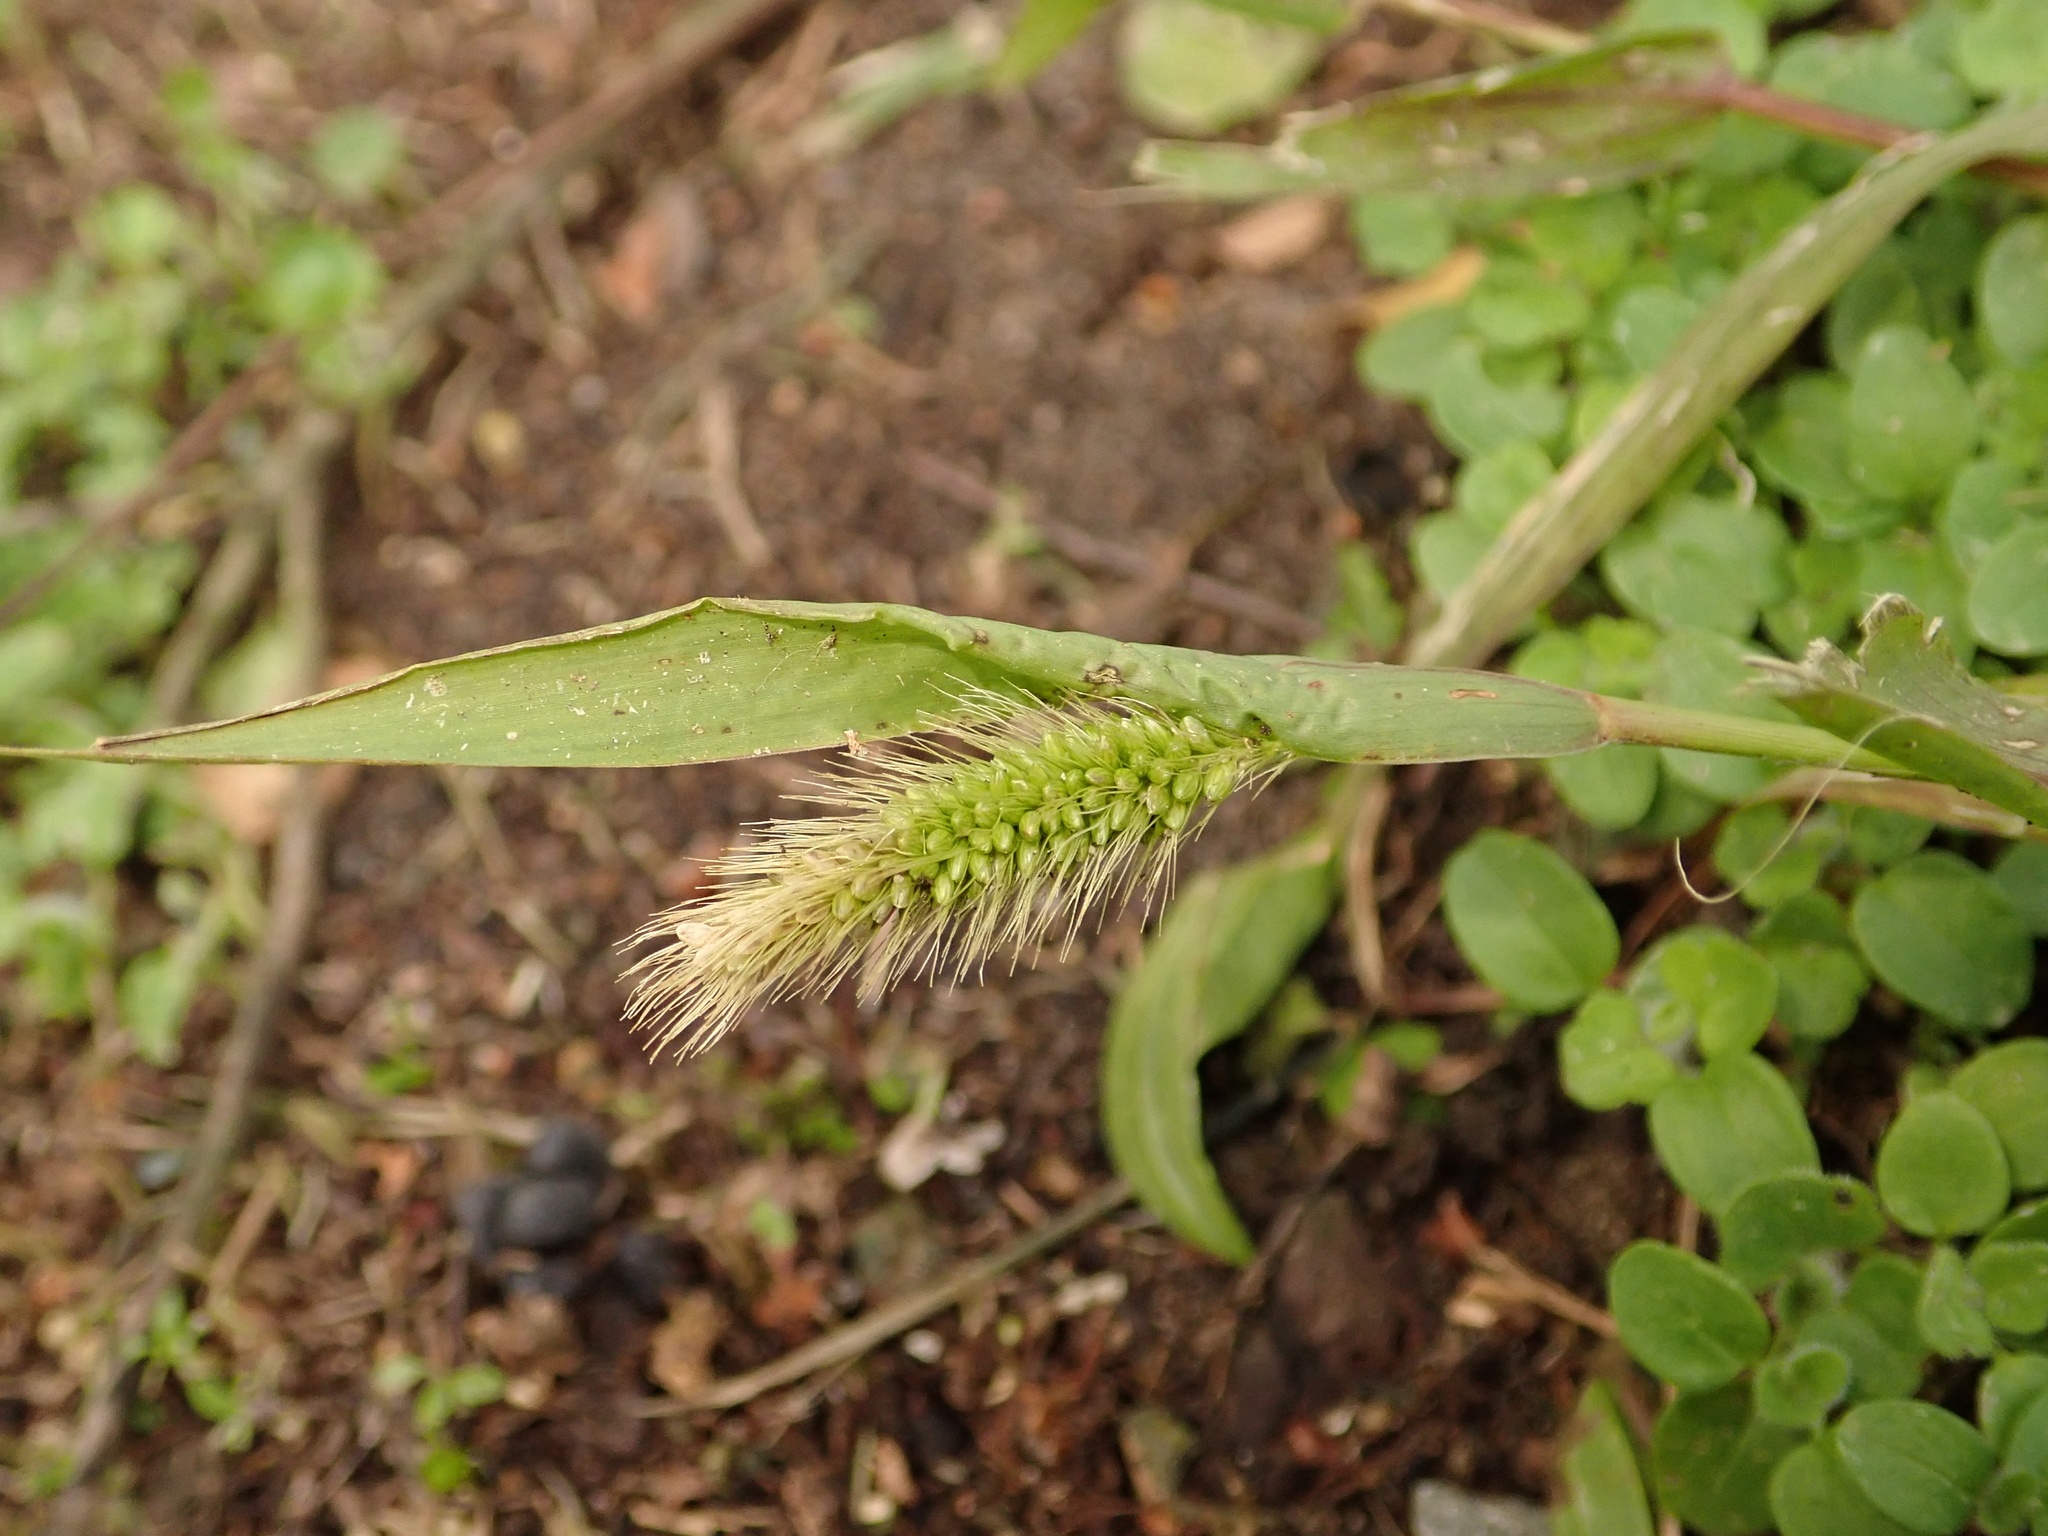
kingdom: Plantae
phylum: Tracheophyta
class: Liliopsida
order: Poales
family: Poaceae
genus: Setaria
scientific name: Setaria viridis
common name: Green bristlegrass
